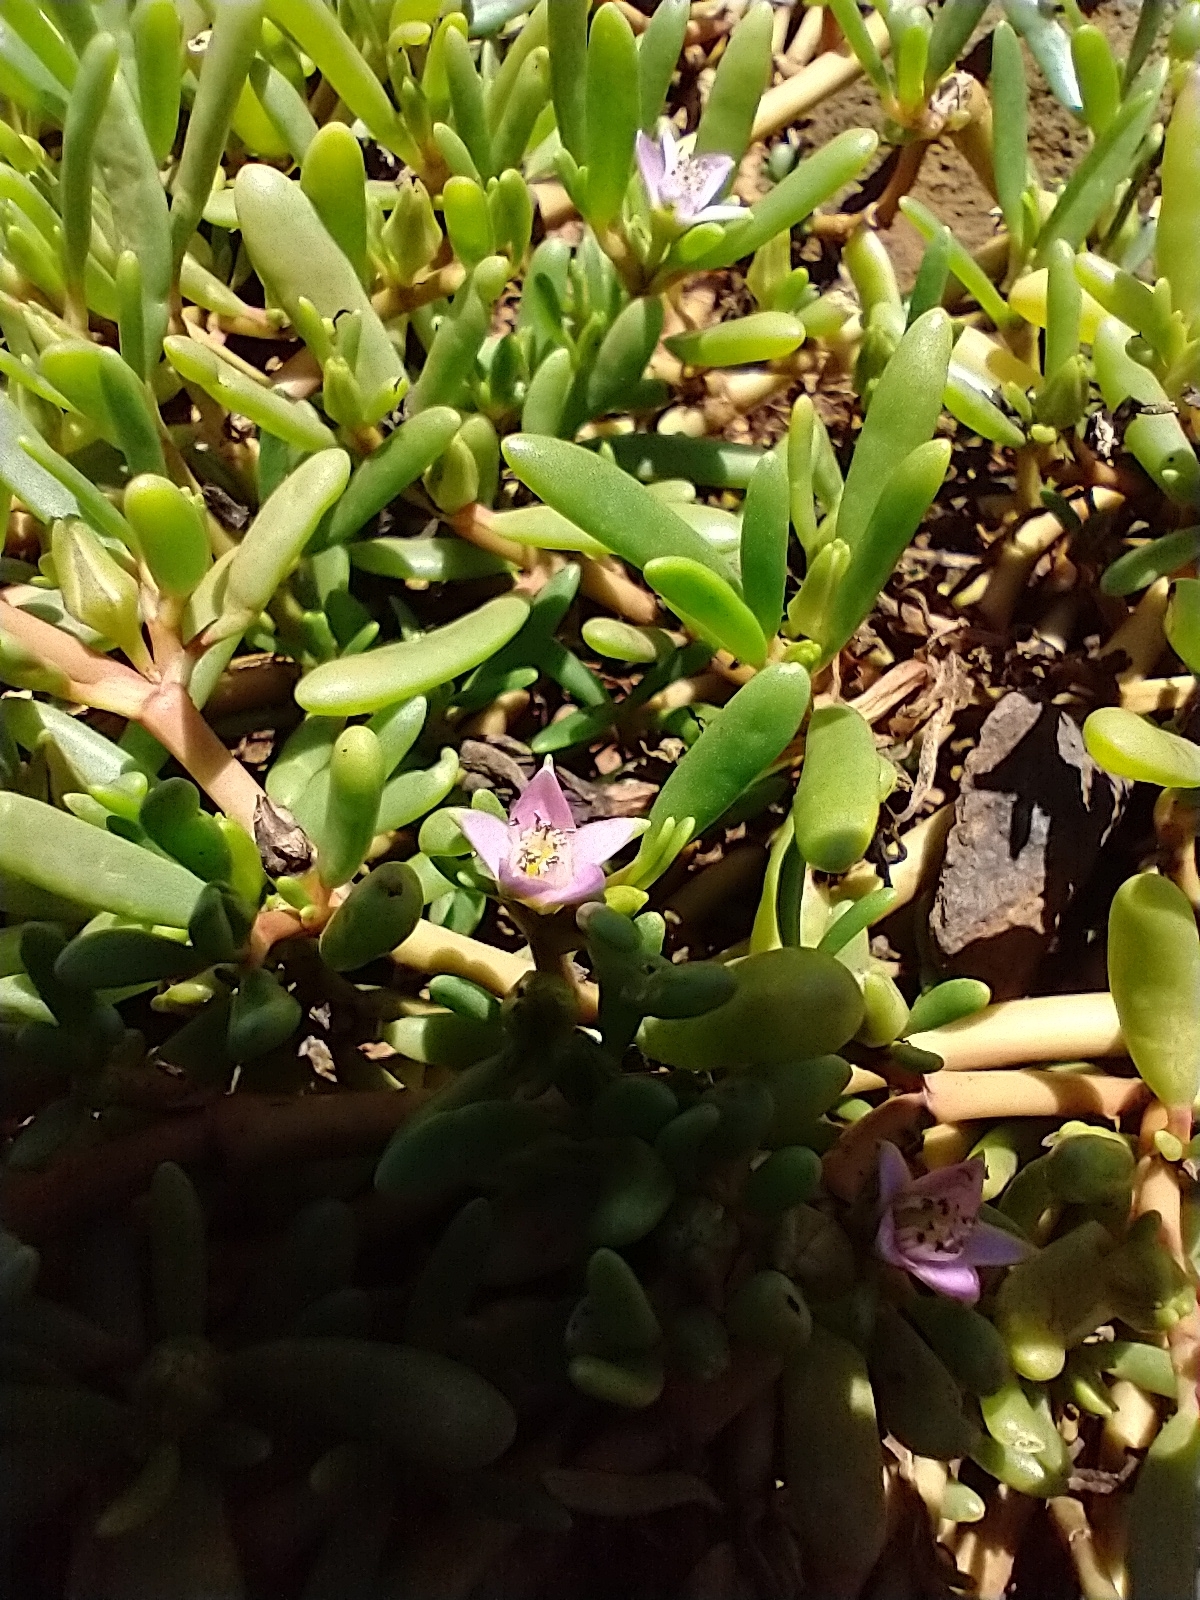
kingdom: Plantae
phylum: Tracheophyta
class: Magnoliopsida
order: Caryophyllales
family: Aizoaceae
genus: Sesuvium
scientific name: Sesuvium portulacastrum
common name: Sea-purslane
